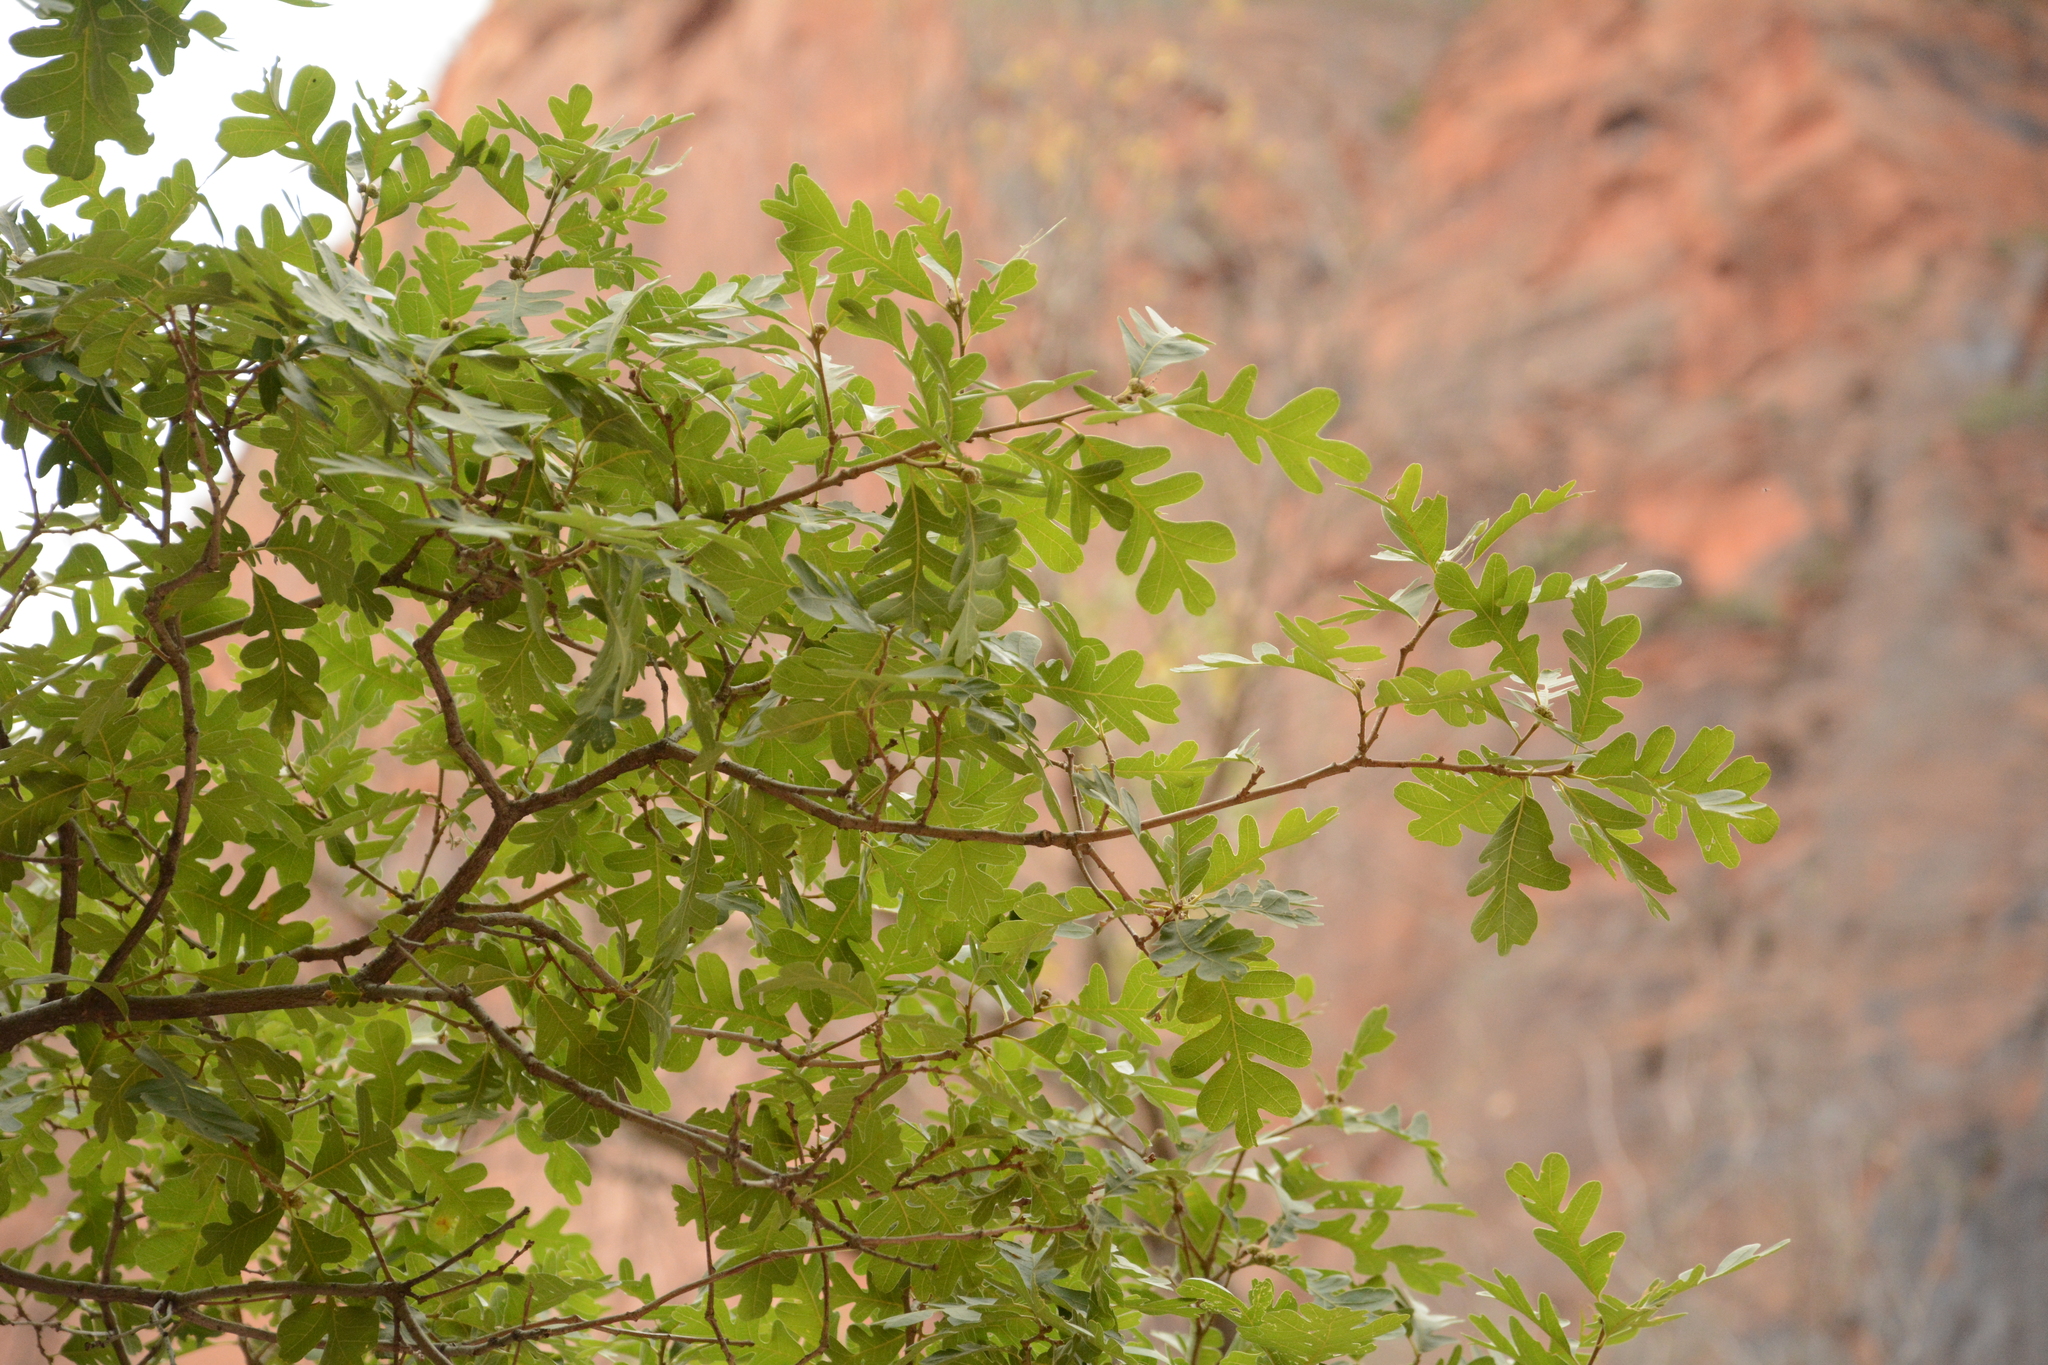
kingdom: Plantae
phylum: Tracheophyta
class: Magnoliopsida
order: Fagales
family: Fagaceae
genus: Quercus
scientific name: Quercus gambelii
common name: Gambel oak
